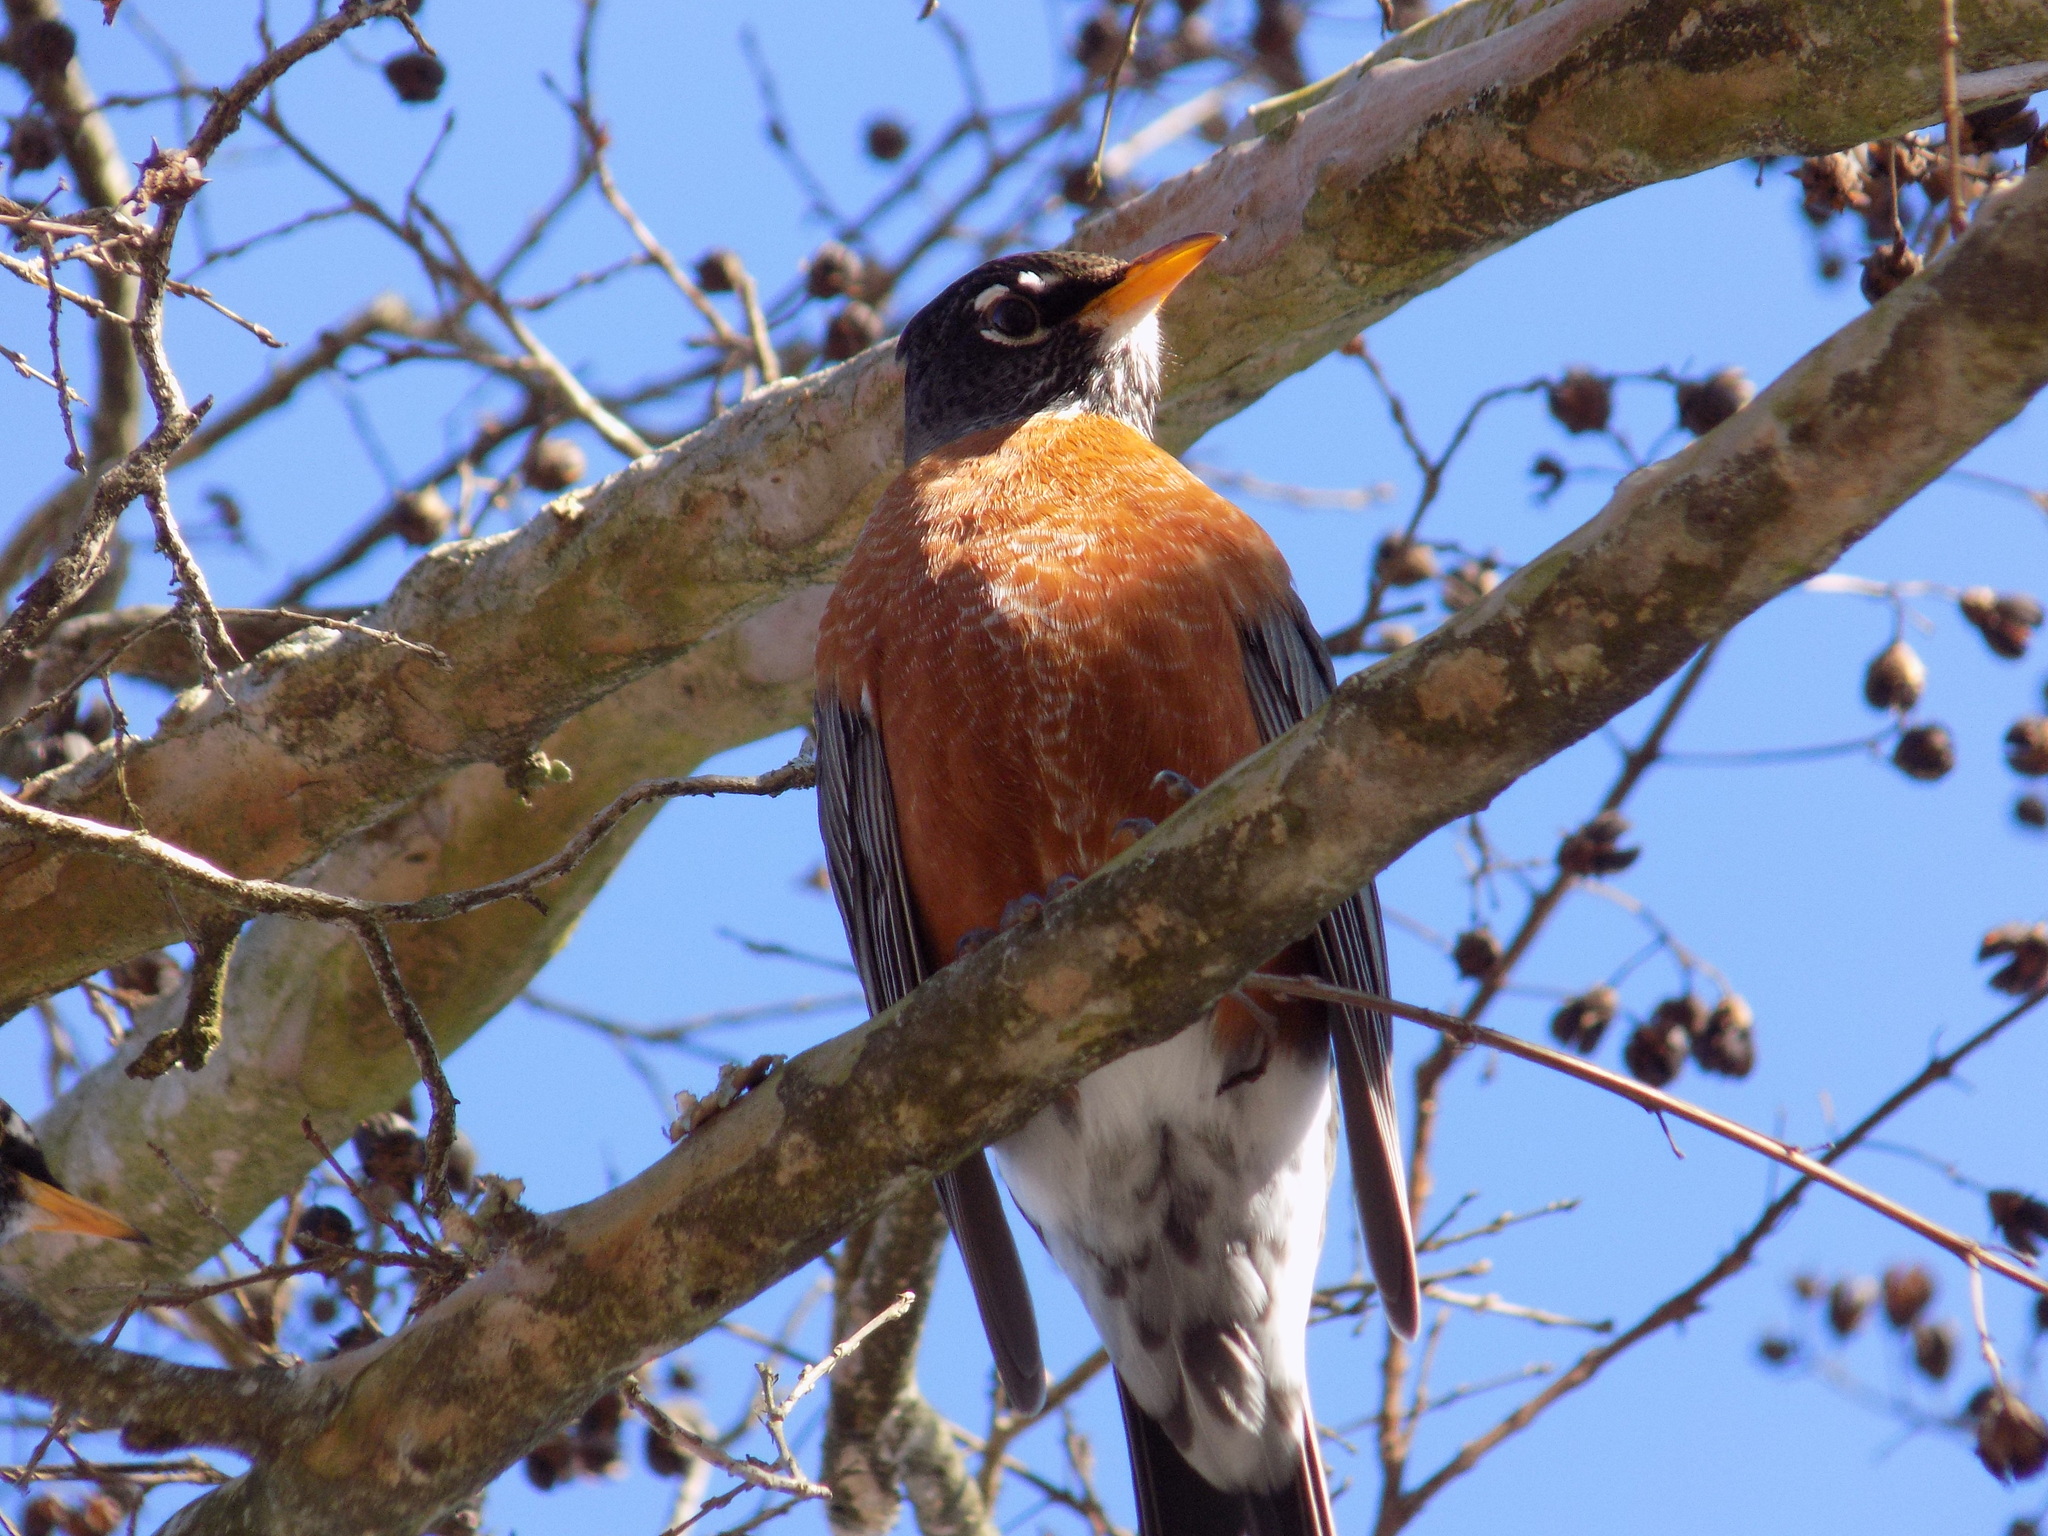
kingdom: Animalia
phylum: Chordata
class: Aves
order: Passeriformes
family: Turdidae
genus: Turdus
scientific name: Turdus migratorius
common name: American robin
